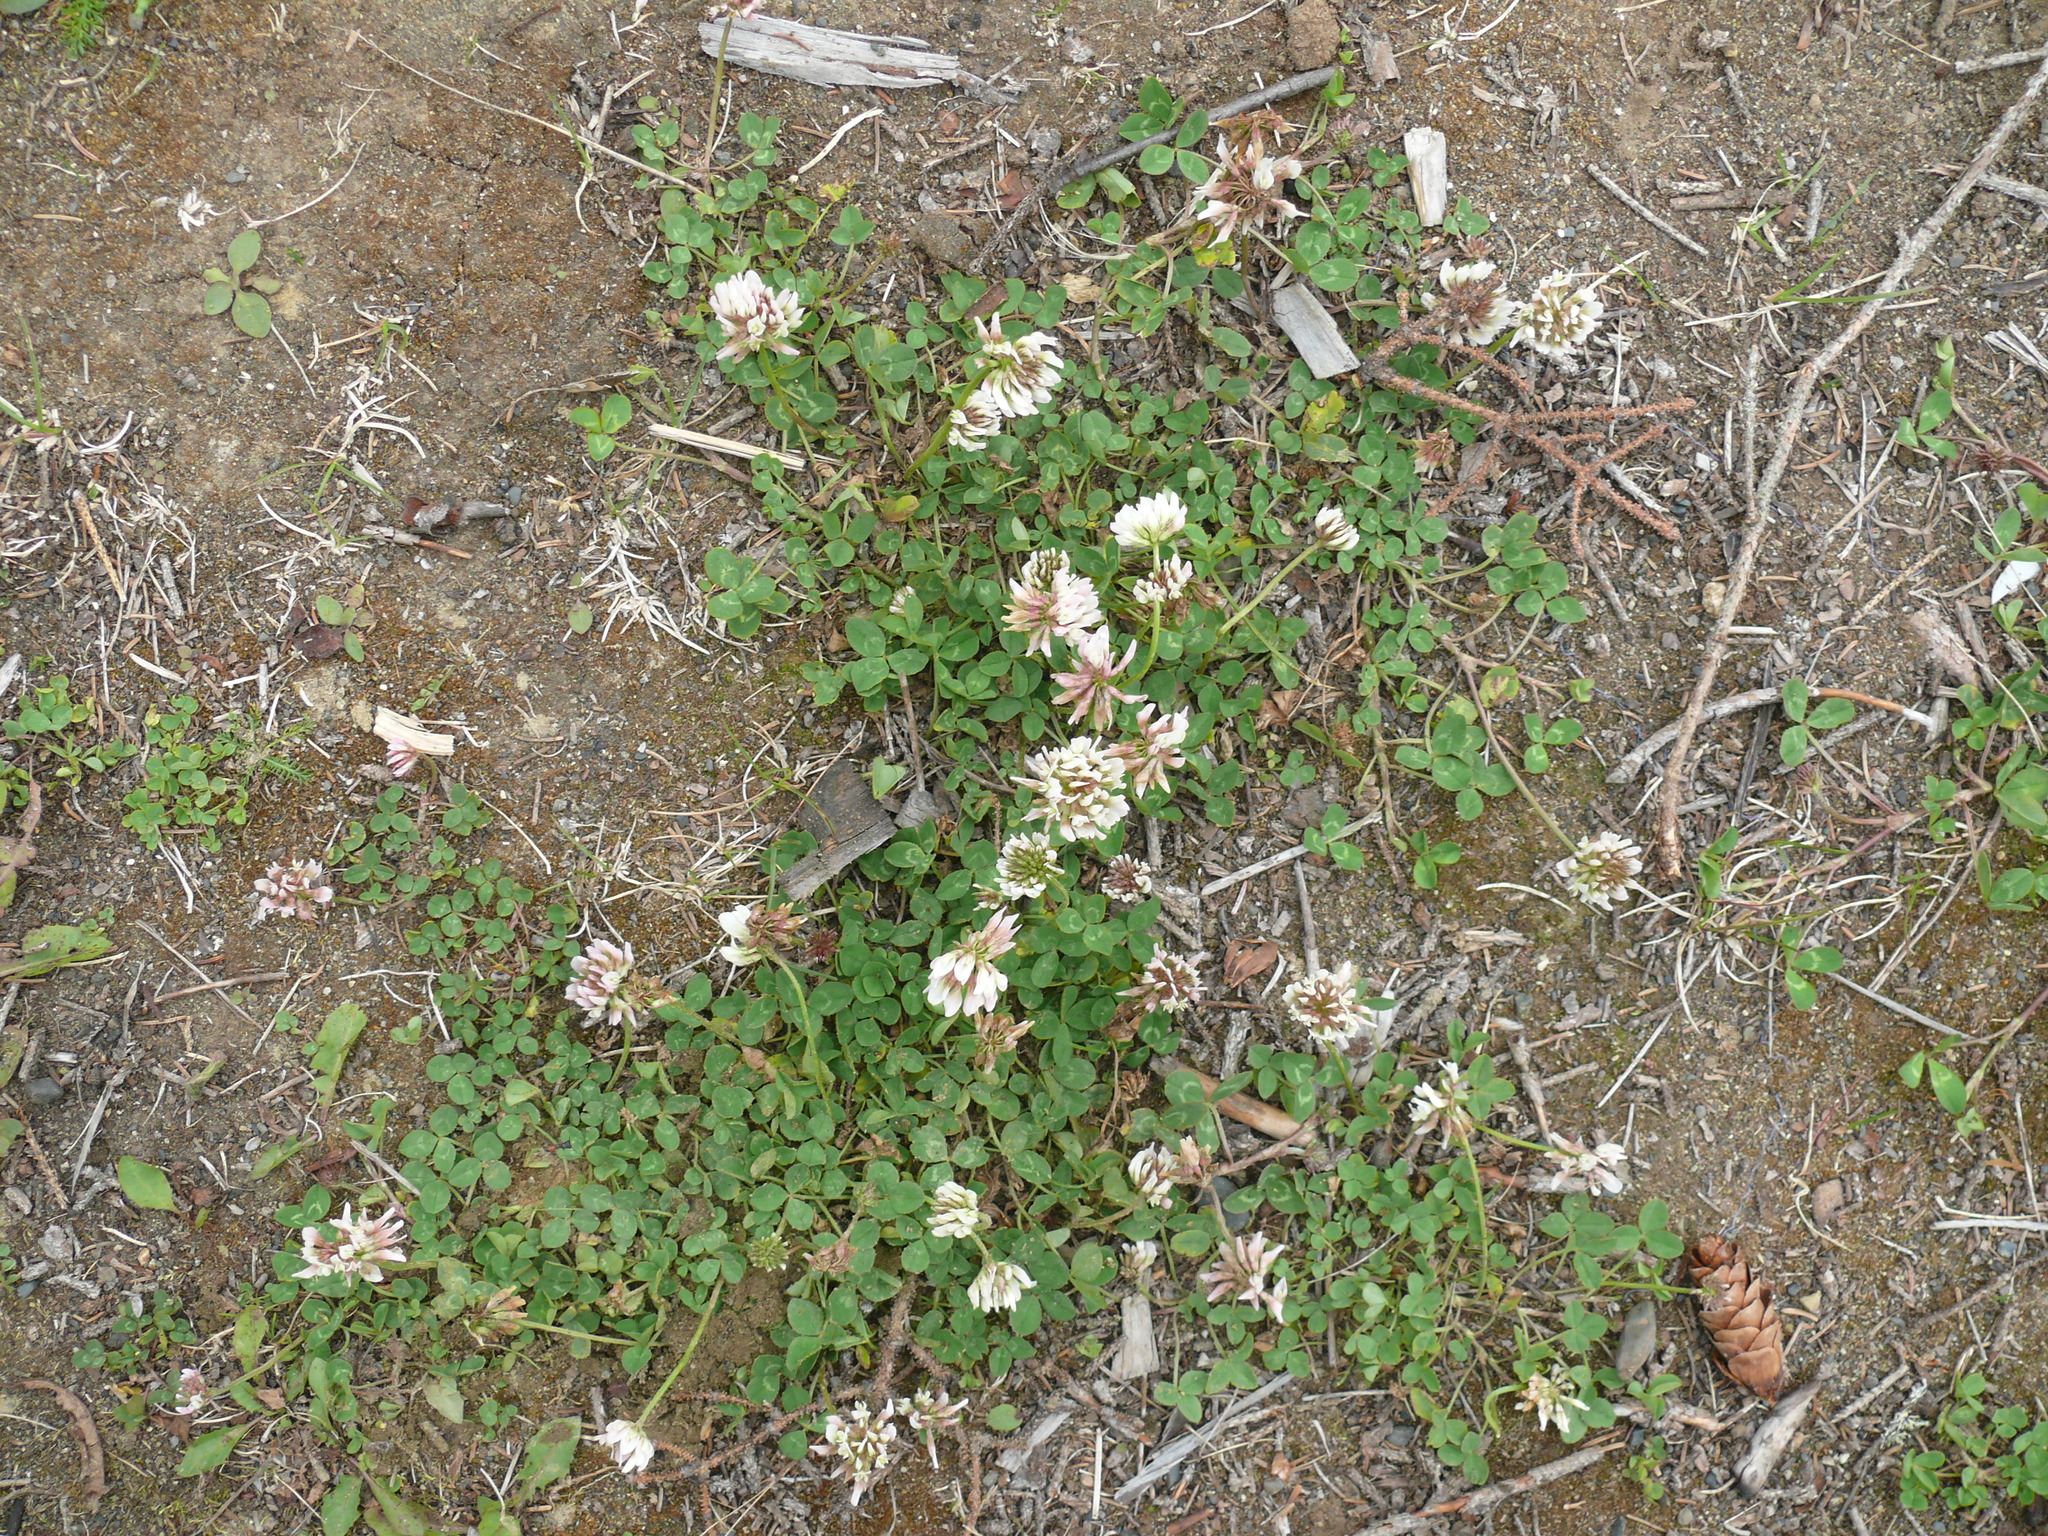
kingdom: Plantae
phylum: Tracheophyta
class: Magnoliopsida
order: Fabales
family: Fabaceae
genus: Trifolium
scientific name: Trifolium repens
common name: White clover
